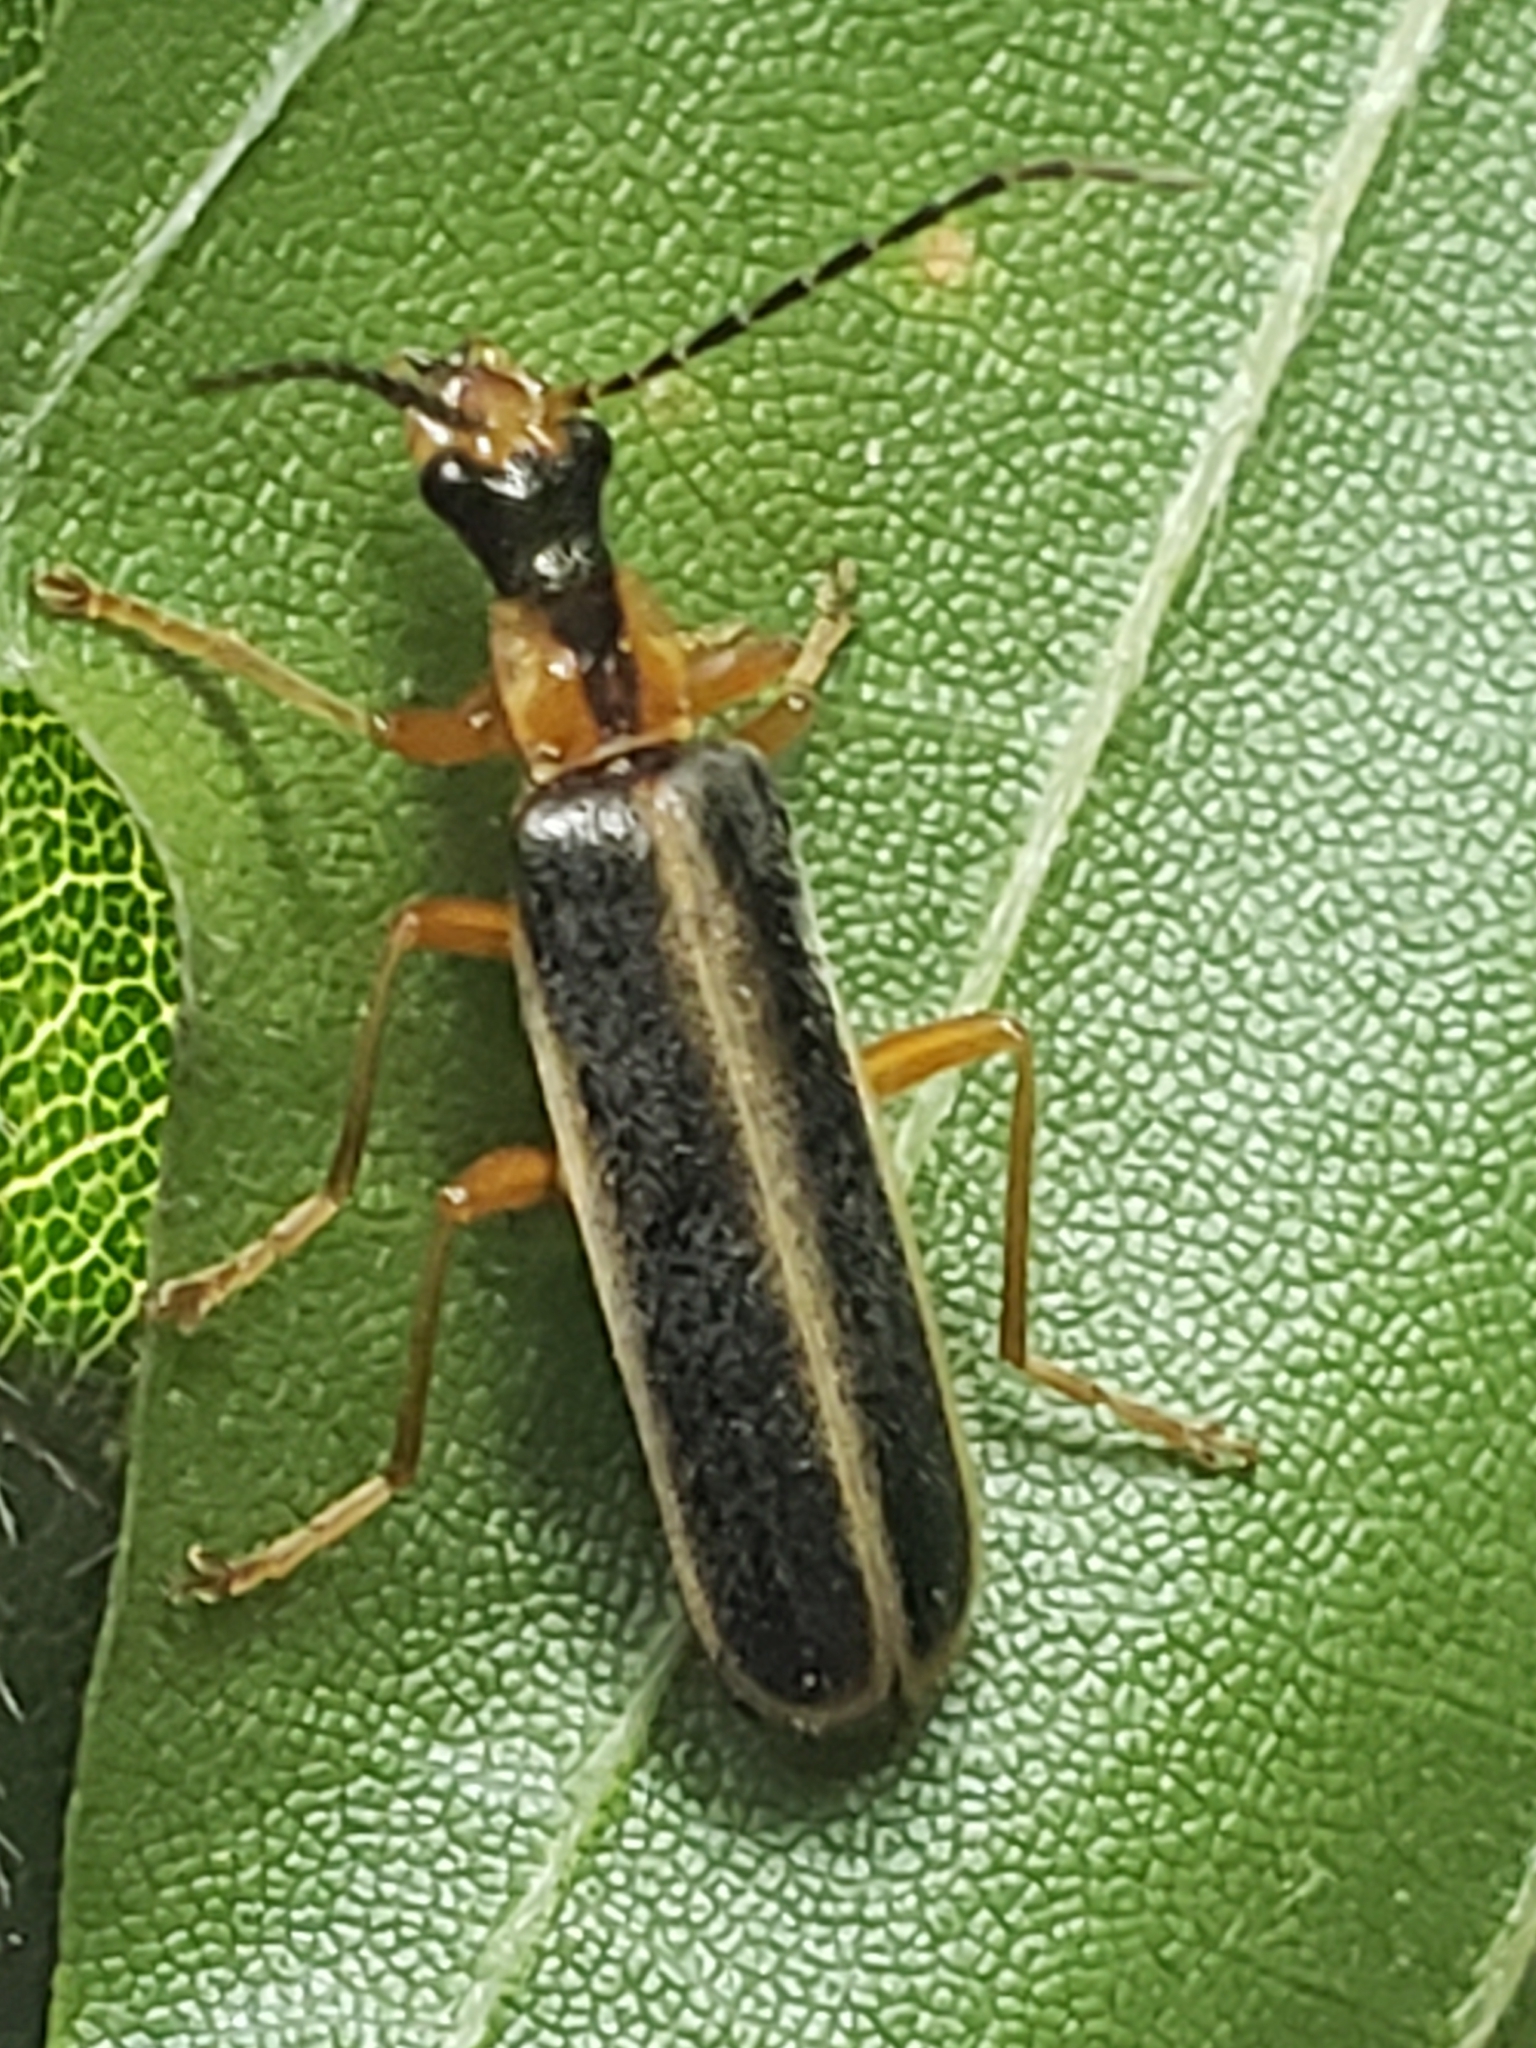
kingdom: Animalia
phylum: Arthropoda
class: Insecta
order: Coleoptera
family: Cantharidae
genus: Podabrus
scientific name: Podabrus brunnicollis
